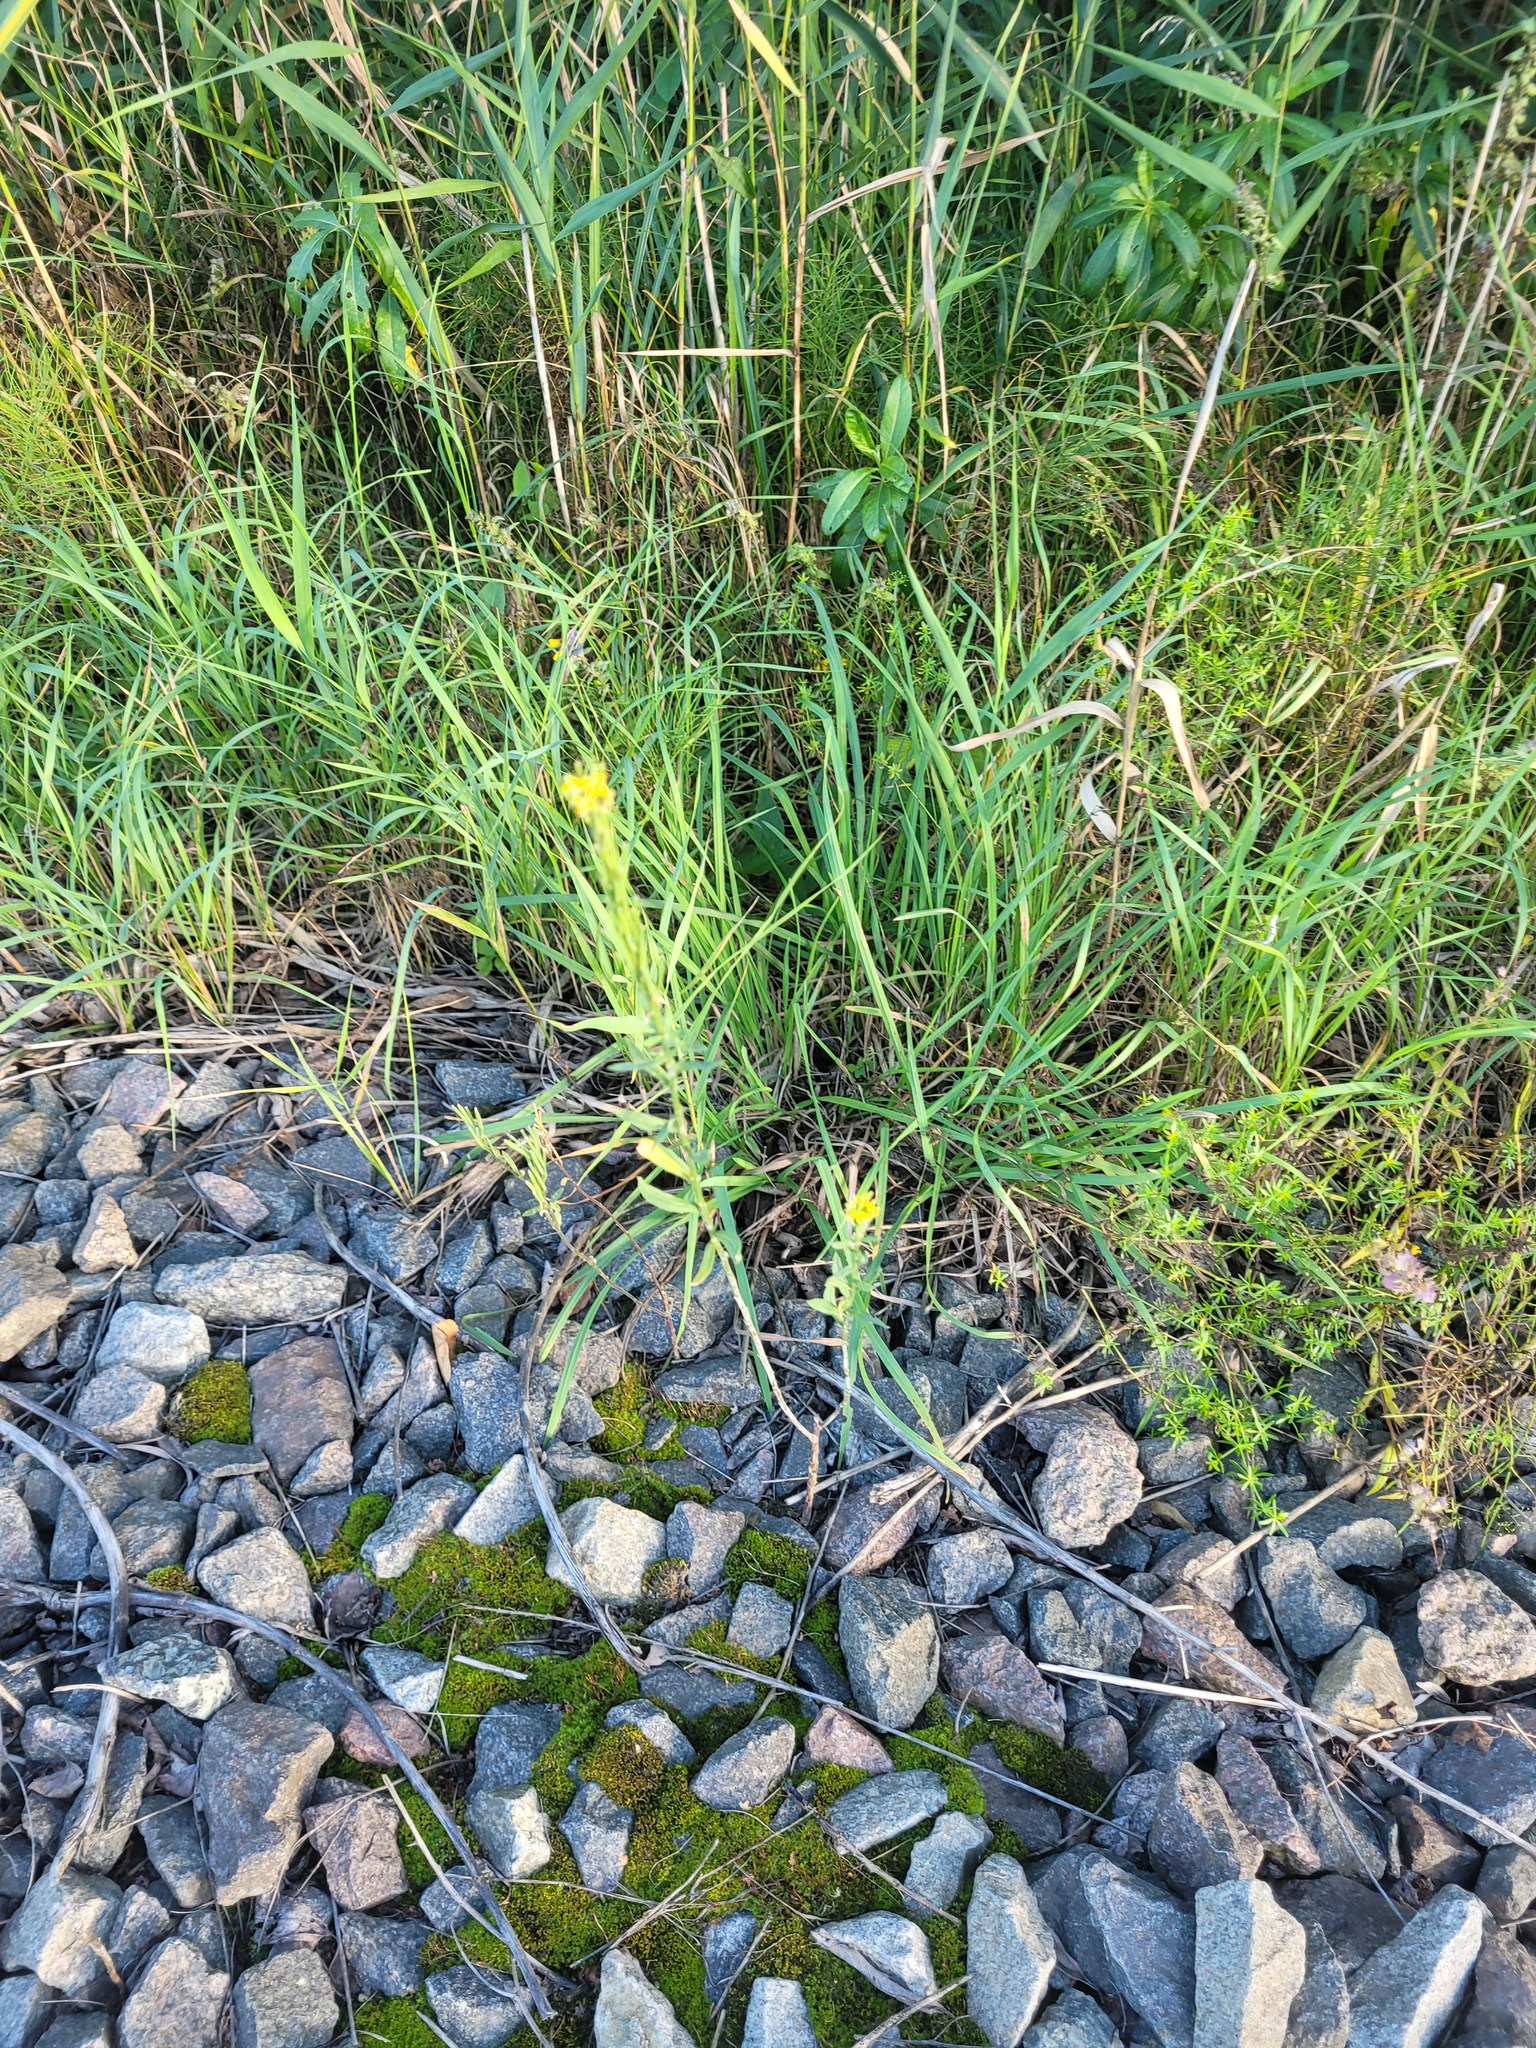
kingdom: Plantae
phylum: Tracheophyta
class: Magnoliopsida
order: Brassicales
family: Brassicaceae
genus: Erysimum
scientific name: Erysimum hieraciifolium
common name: European wallflower
